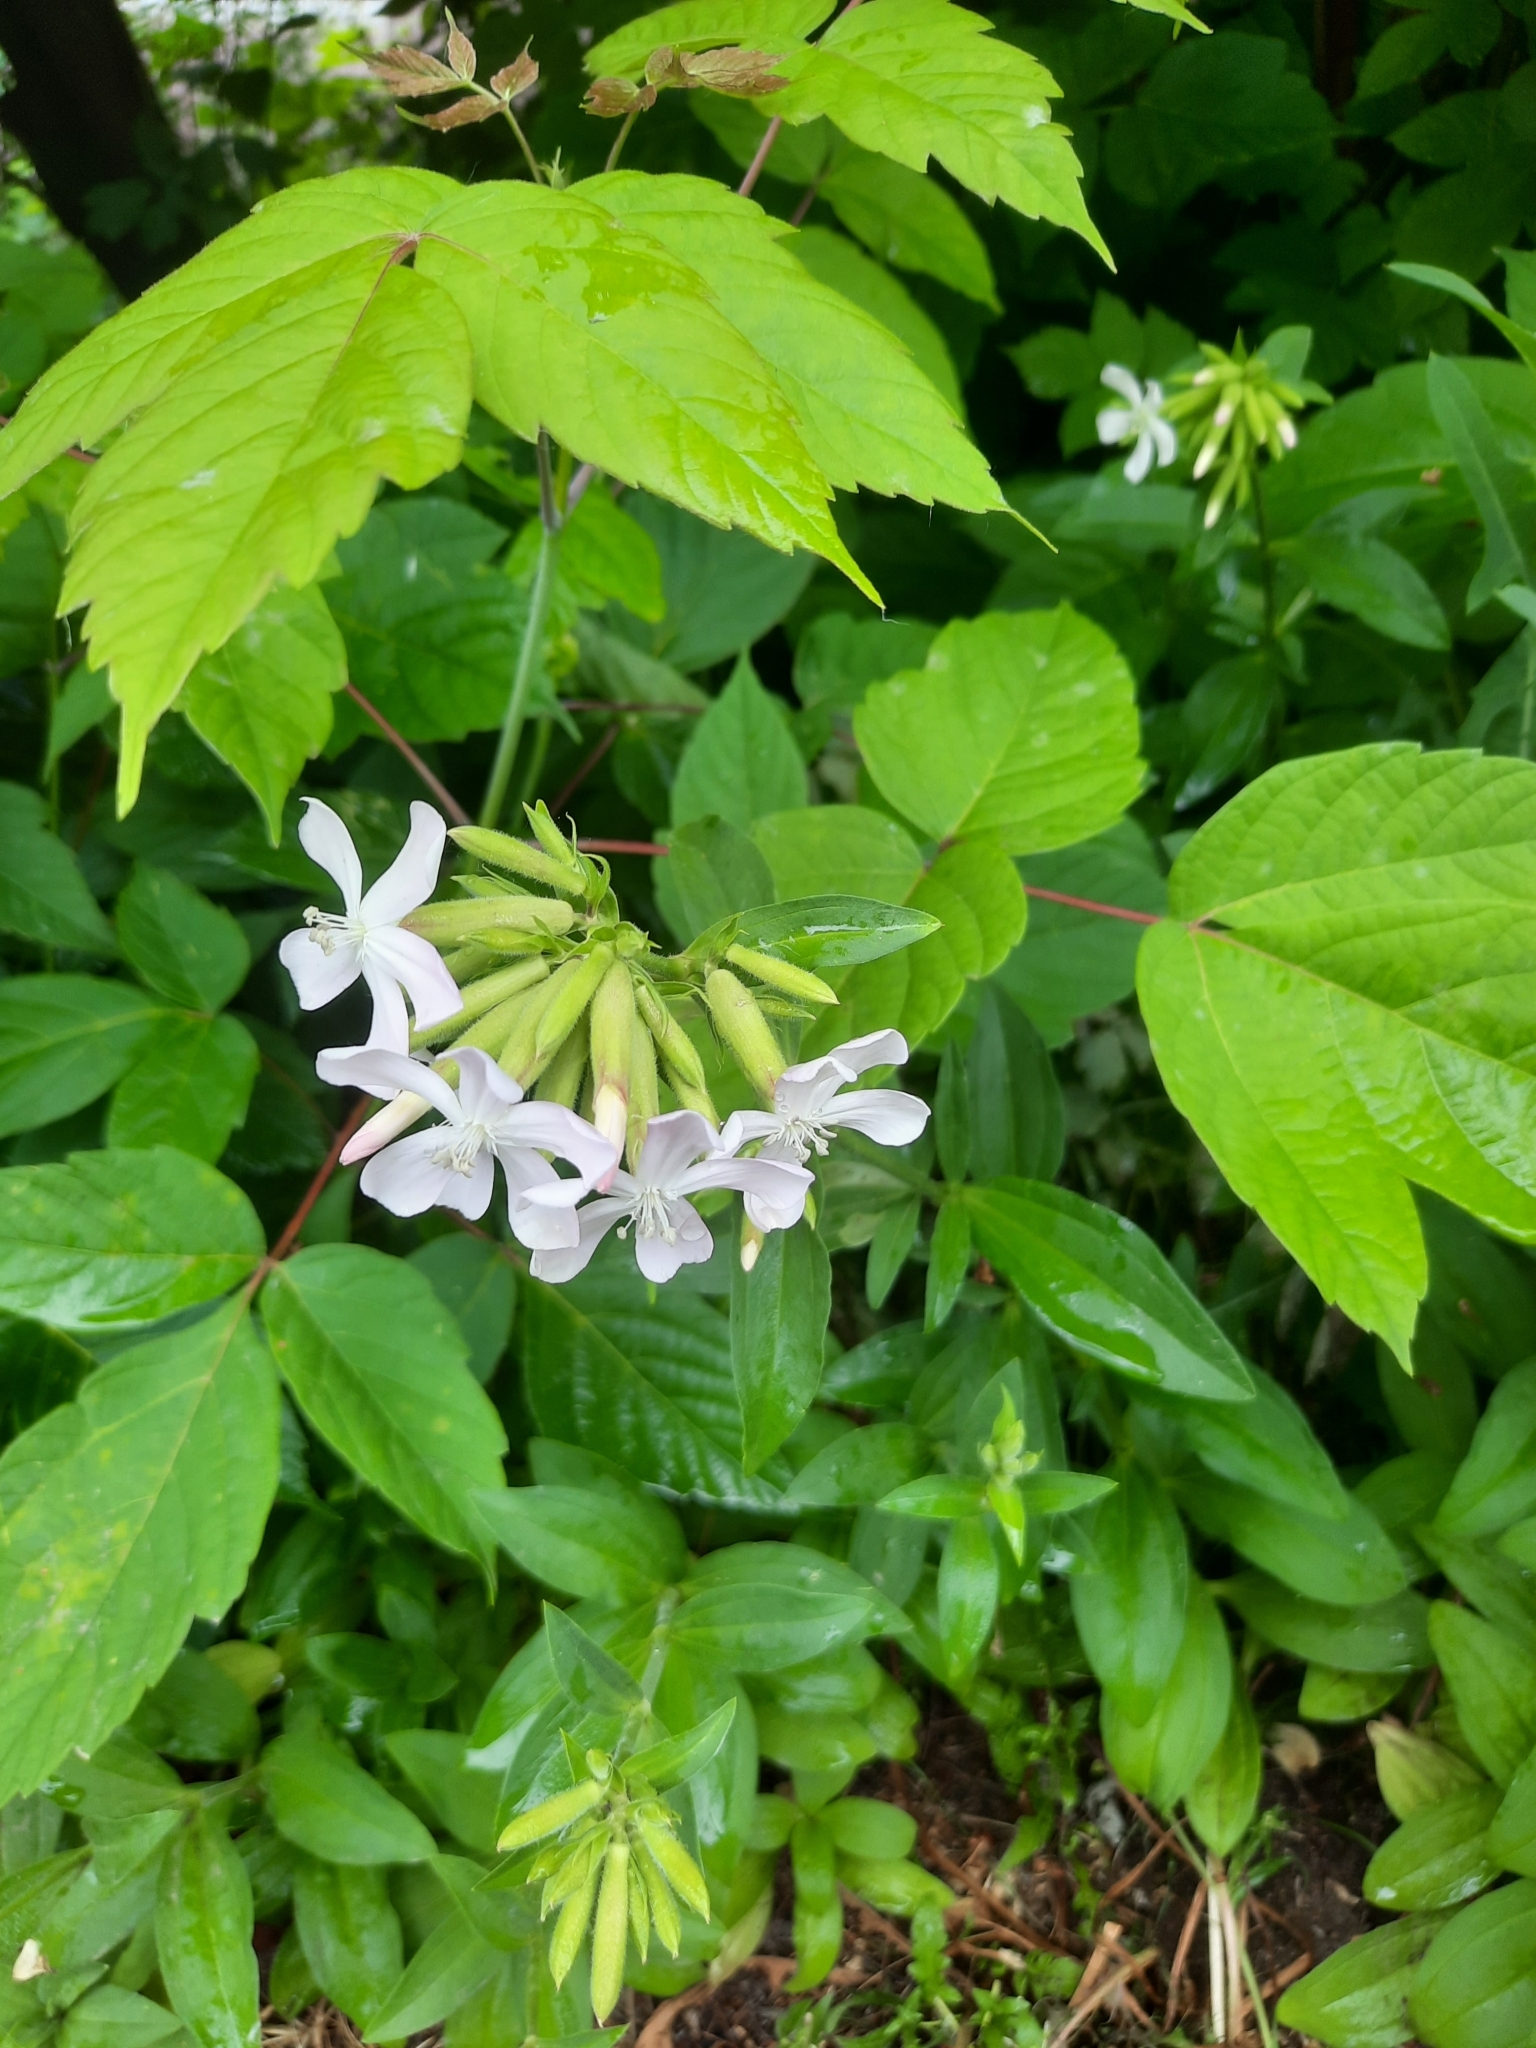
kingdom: Plantae
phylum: Tracheophyta
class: Magnoliopsida
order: Caryophyllales
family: Caryophyllaceae
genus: Saponaria
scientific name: Saponaria officinalis
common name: Soapwort
